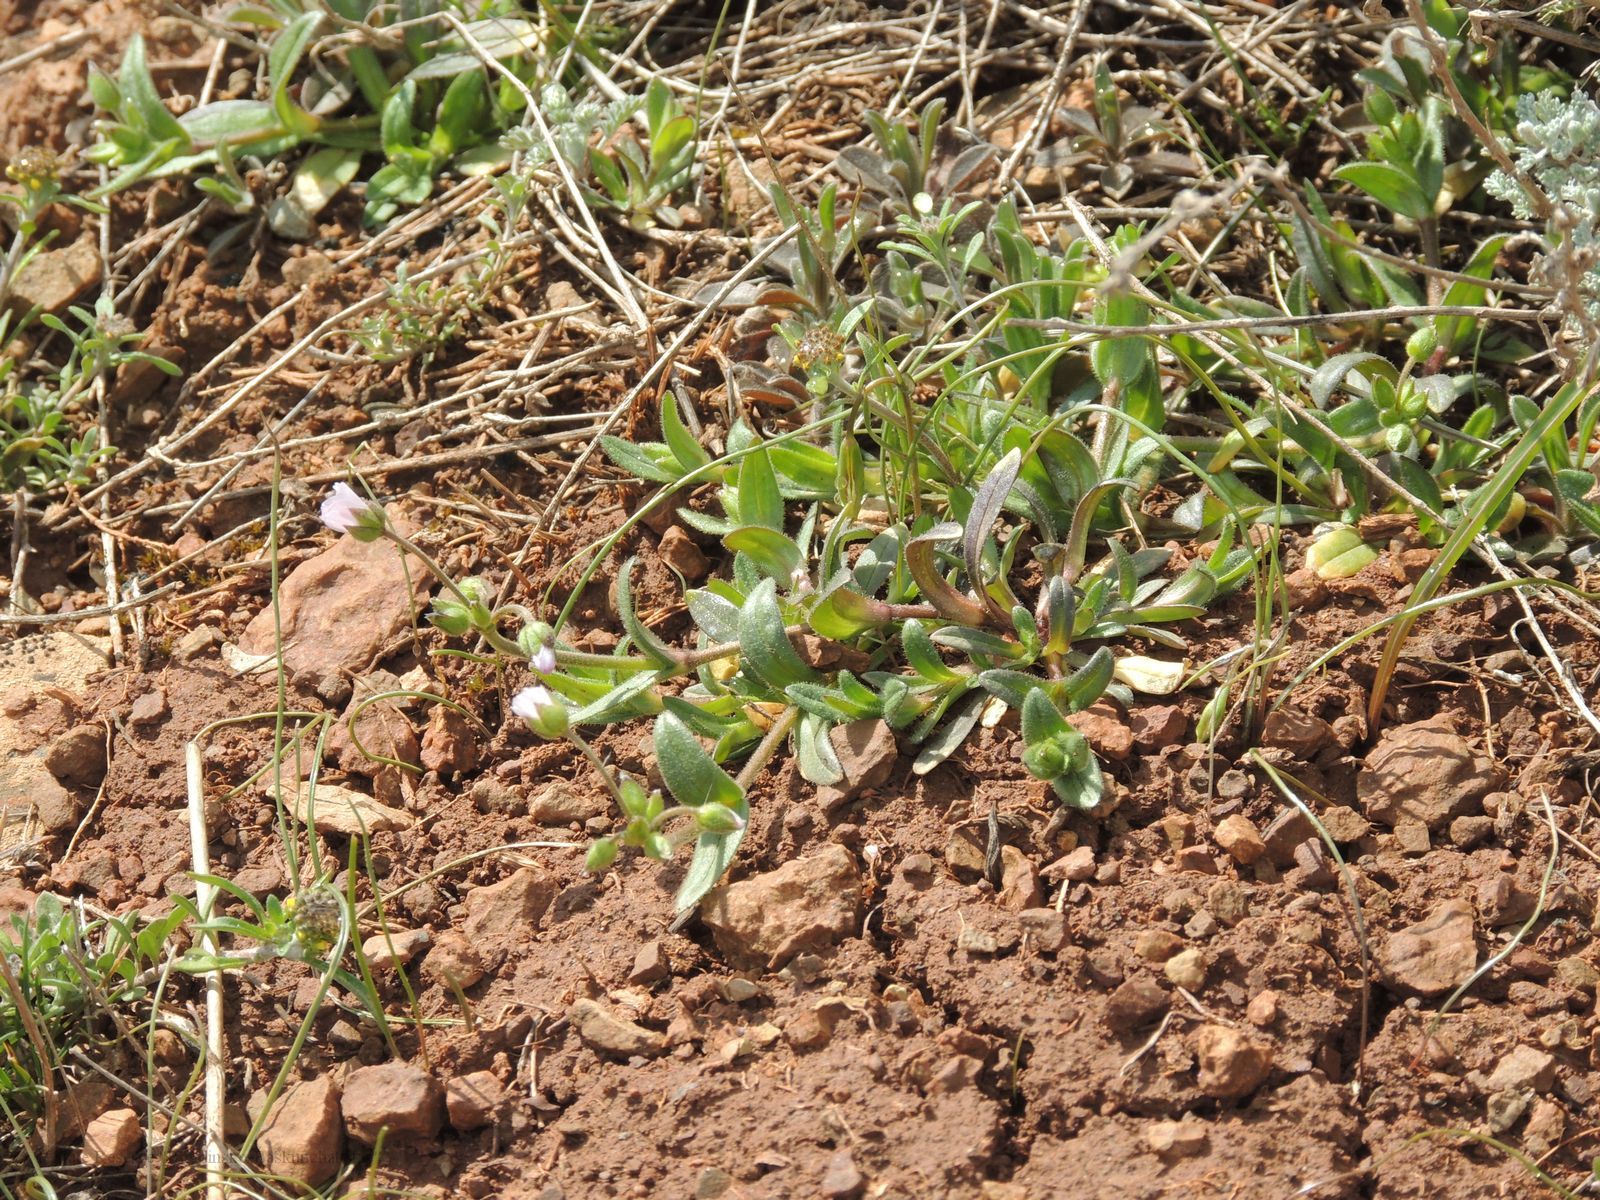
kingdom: Plantae
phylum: Tracheophyta
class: Magnoliopsida
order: Caryophyllales
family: Caryophyllaceae
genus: Holosteum
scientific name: Holosteum glutinosum
